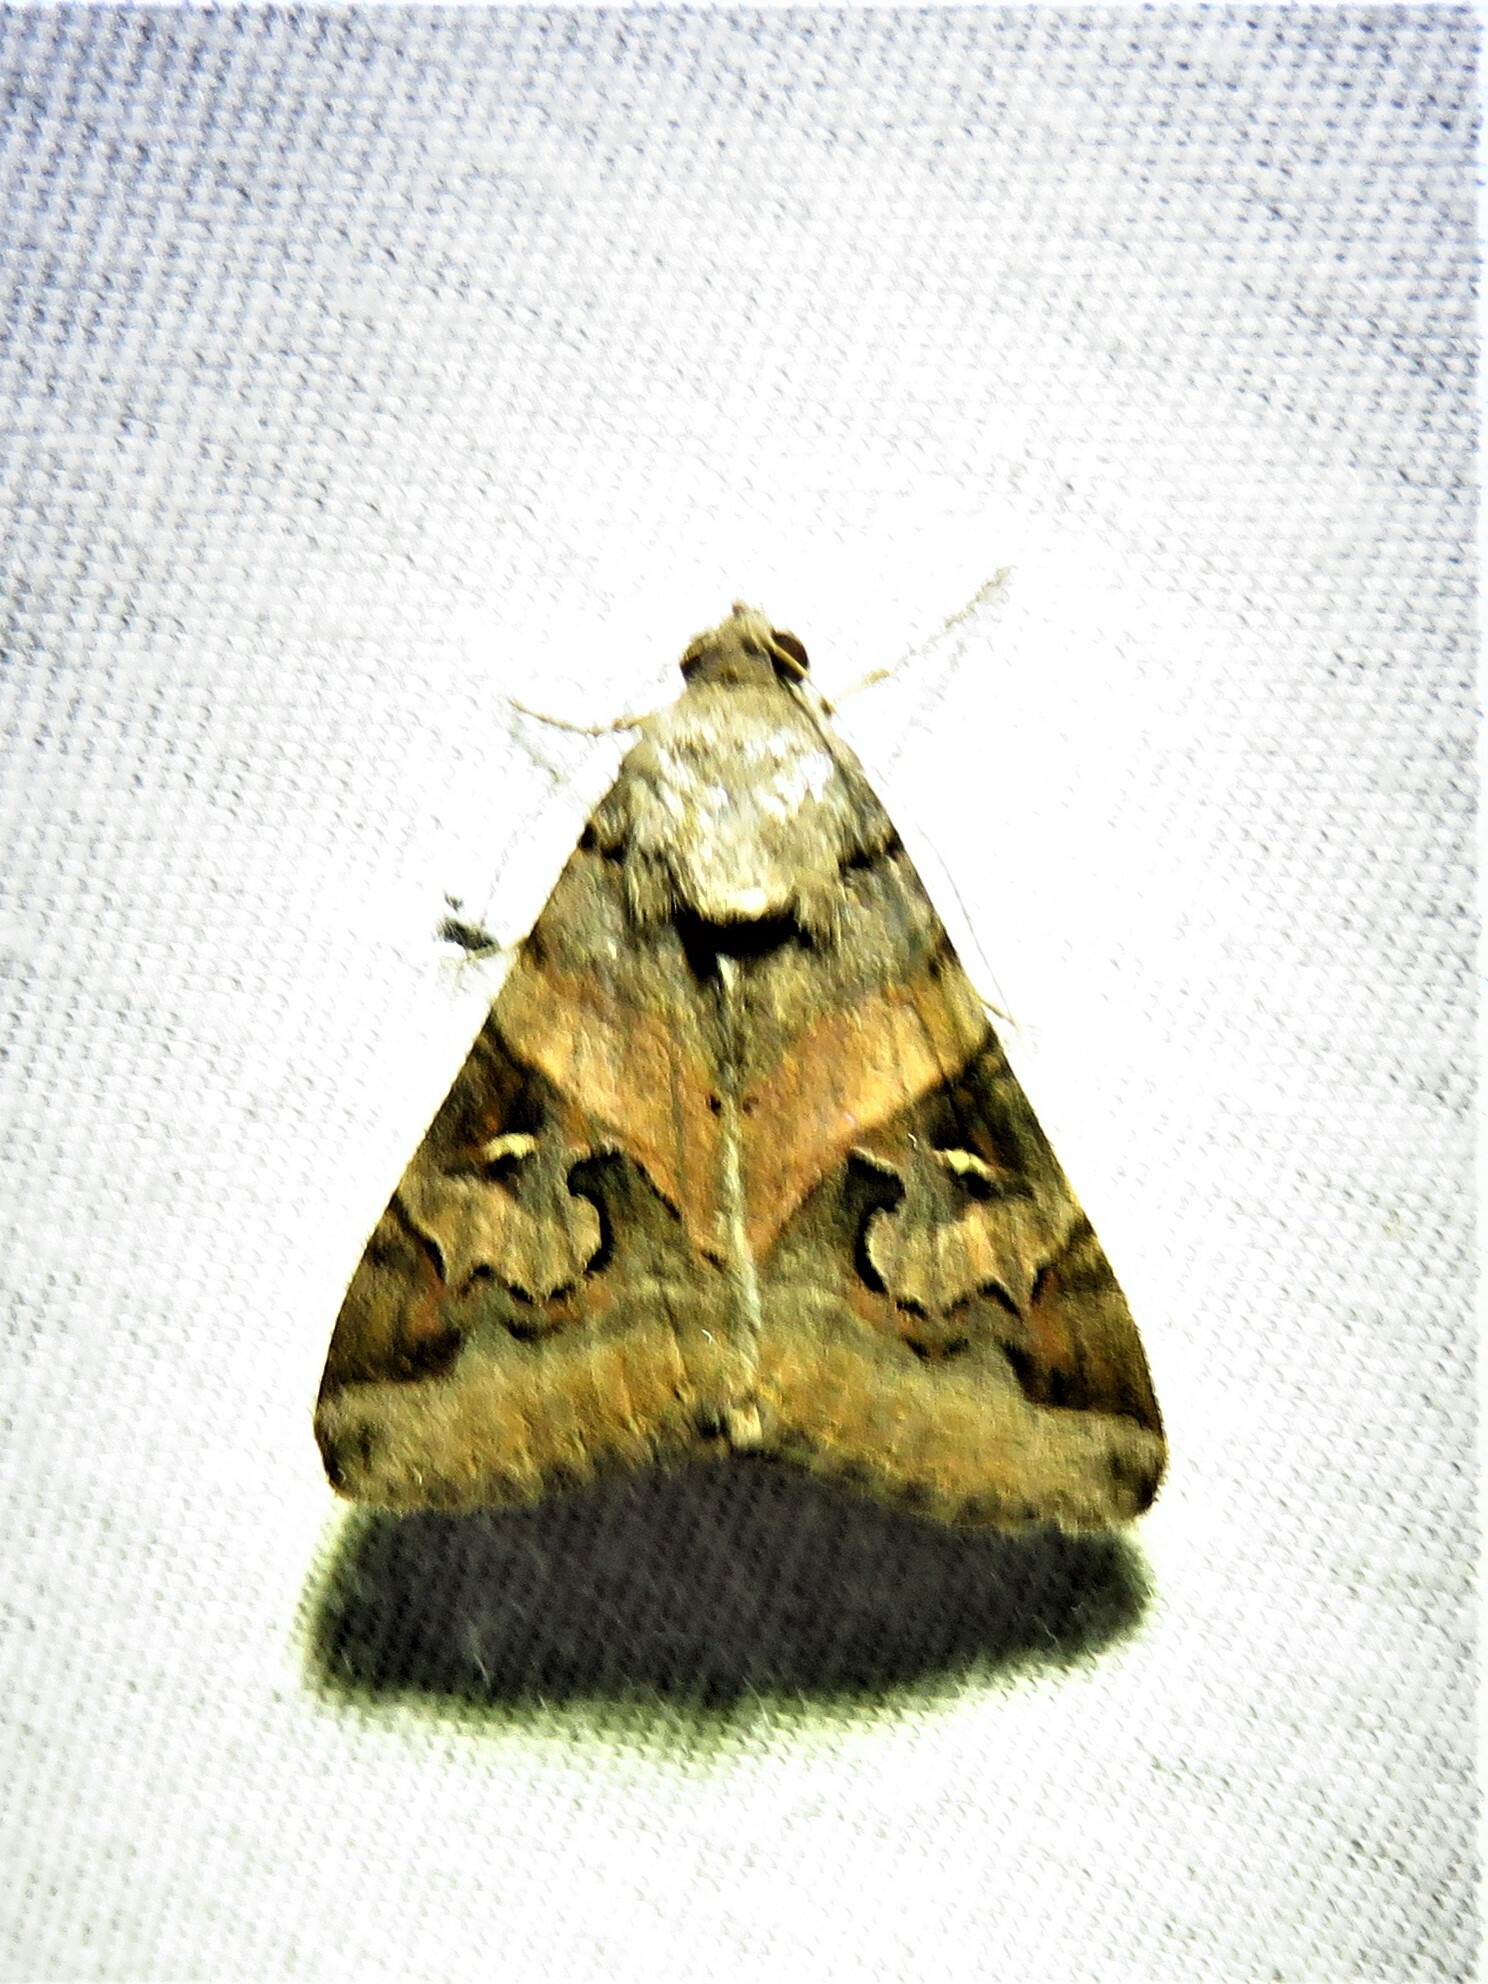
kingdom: Animalia
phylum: Arthropoda
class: Insecta
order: Lepidoptera
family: Erebidae
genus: Melipotis
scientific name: Melipotis indomita
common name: Moth
